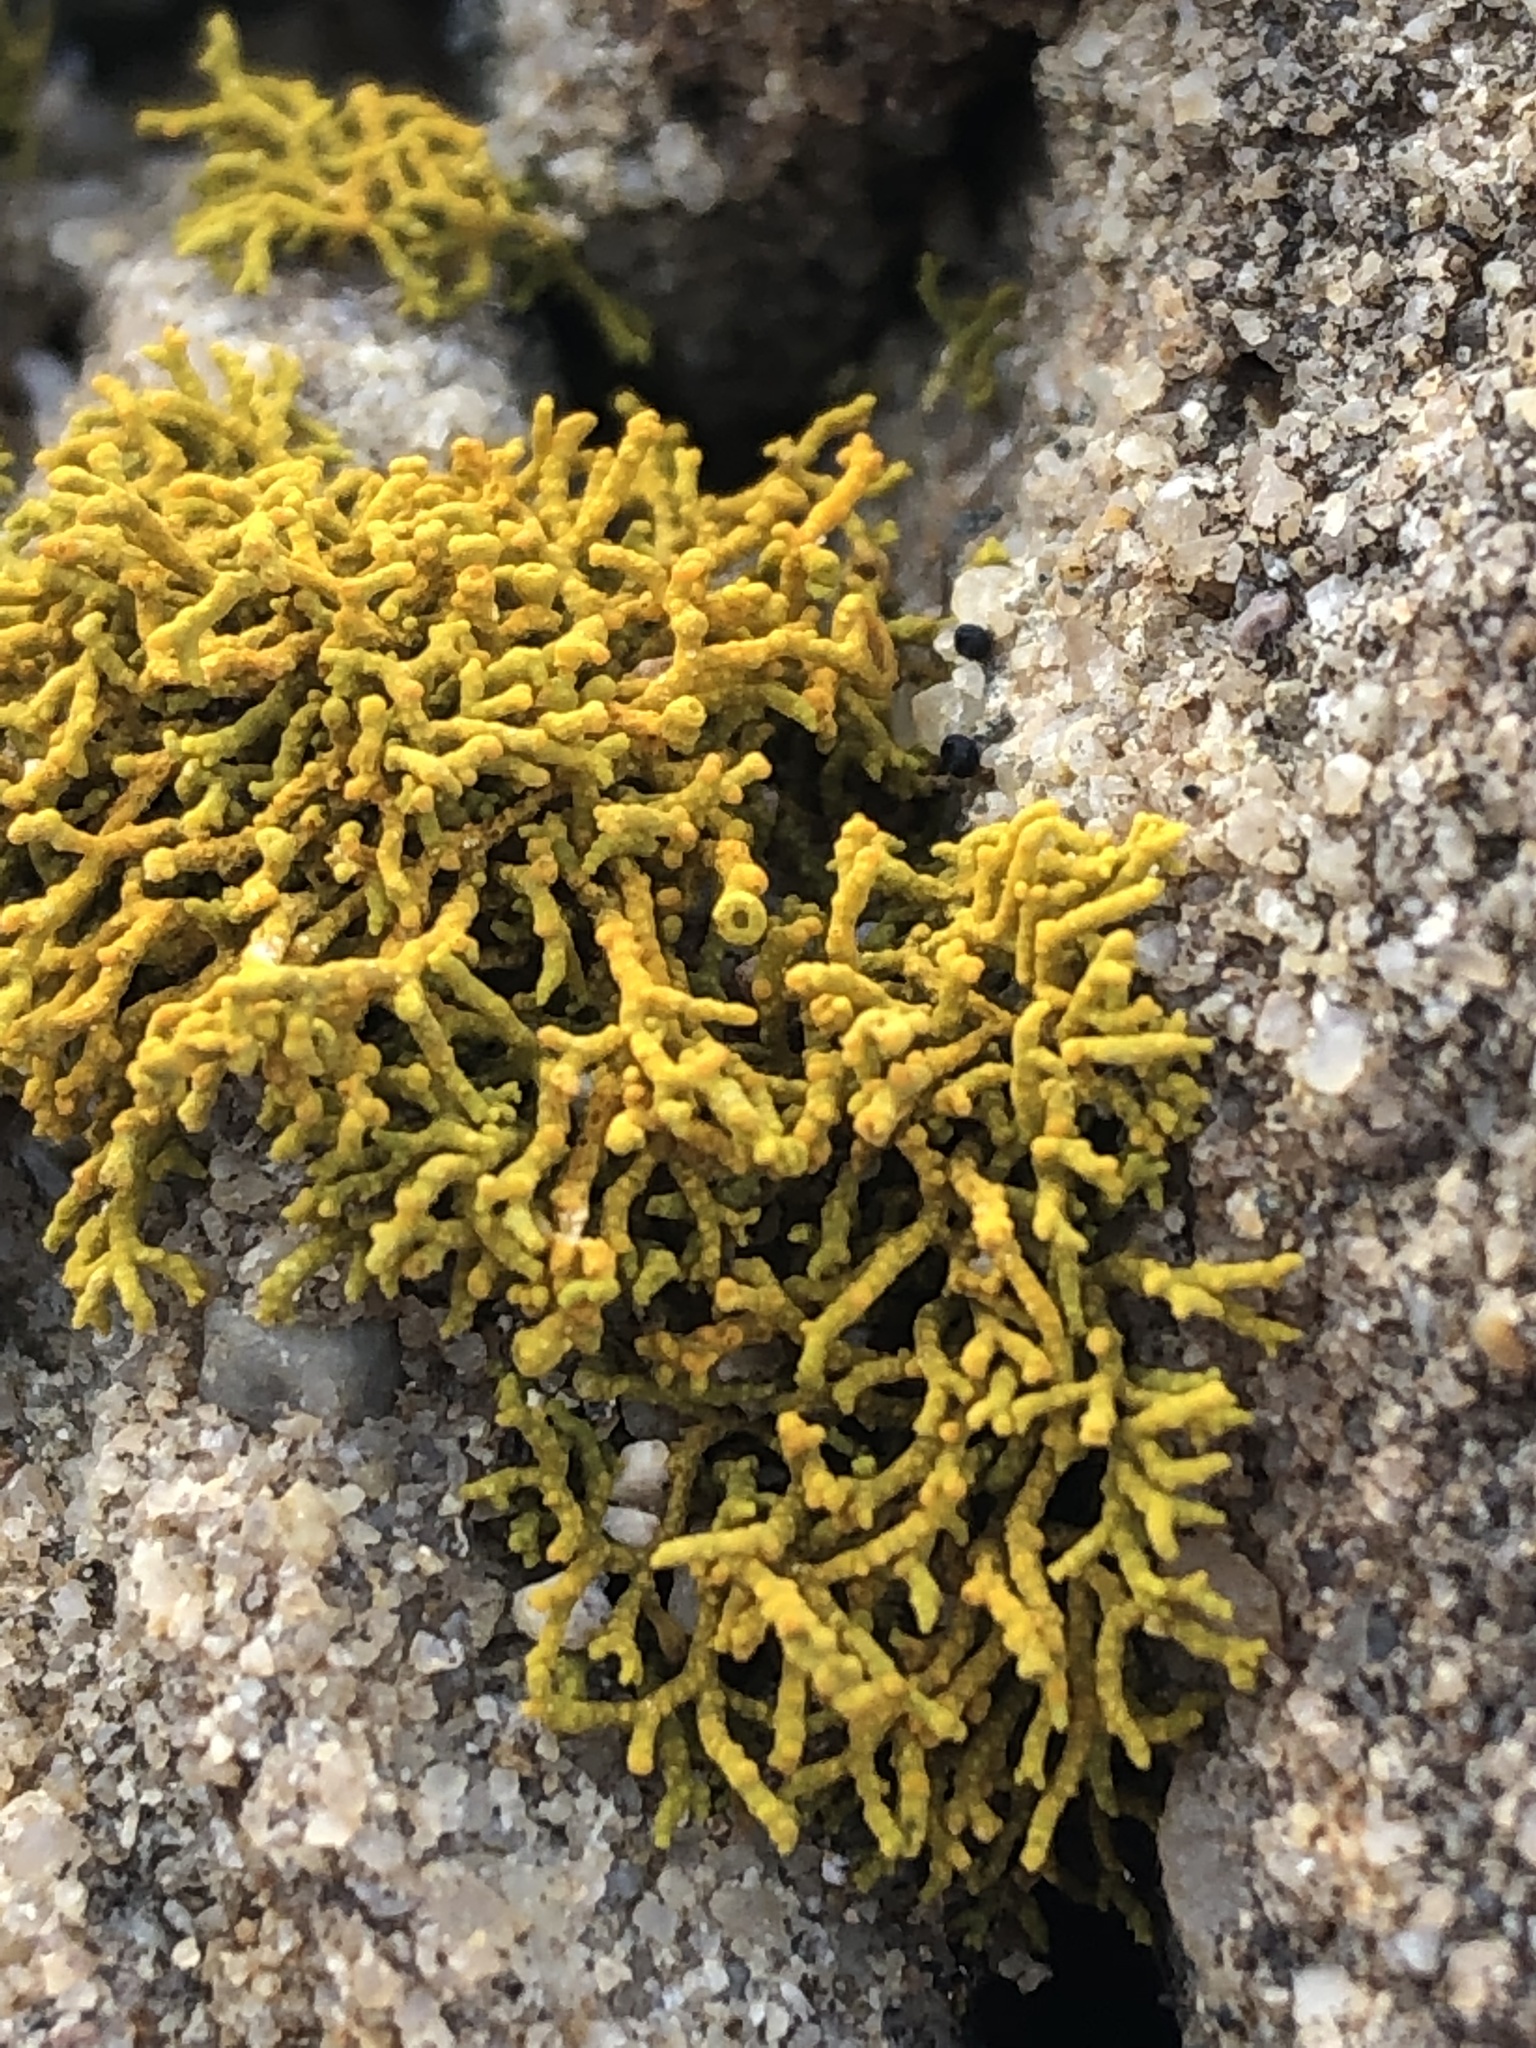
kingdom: Fungi
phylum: Ascomycota
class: Lecanoromycetes
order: Teloschistales
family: Teloschistaceae
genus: Polycauliona
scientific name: Polycauliona coralloides
